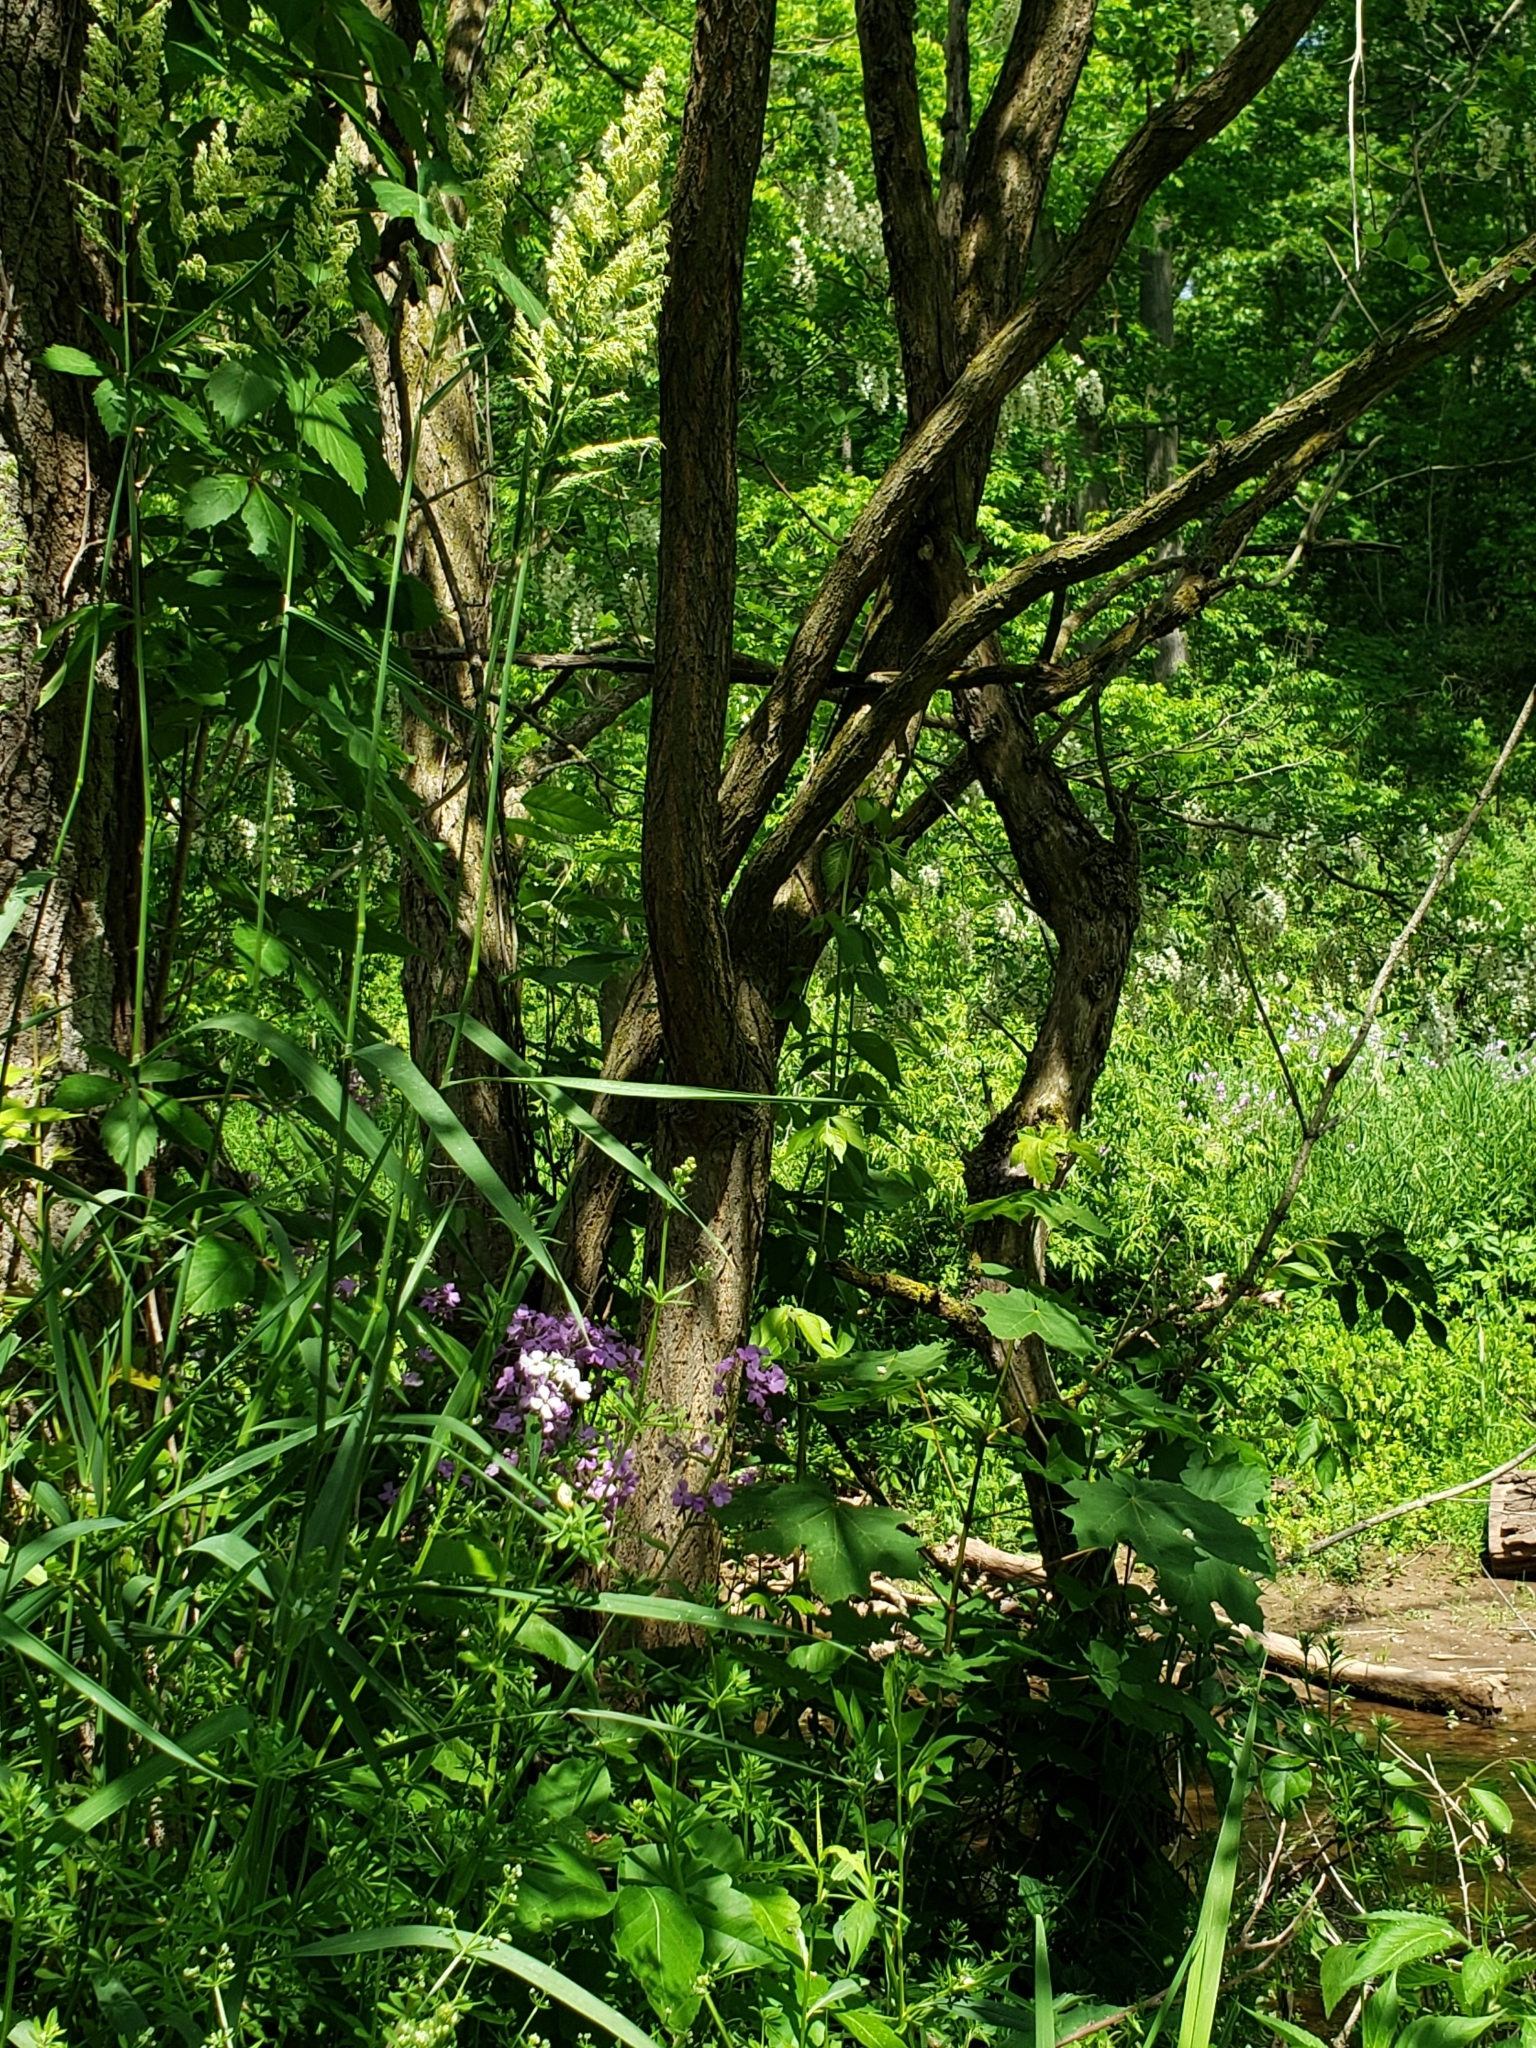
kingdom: Plantae
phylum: Tracheophyta
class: Magnoliopsida
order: Fabales
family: Fabaceae
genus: Robinia
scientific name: Robinia pseudoacacia
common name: Black locust
